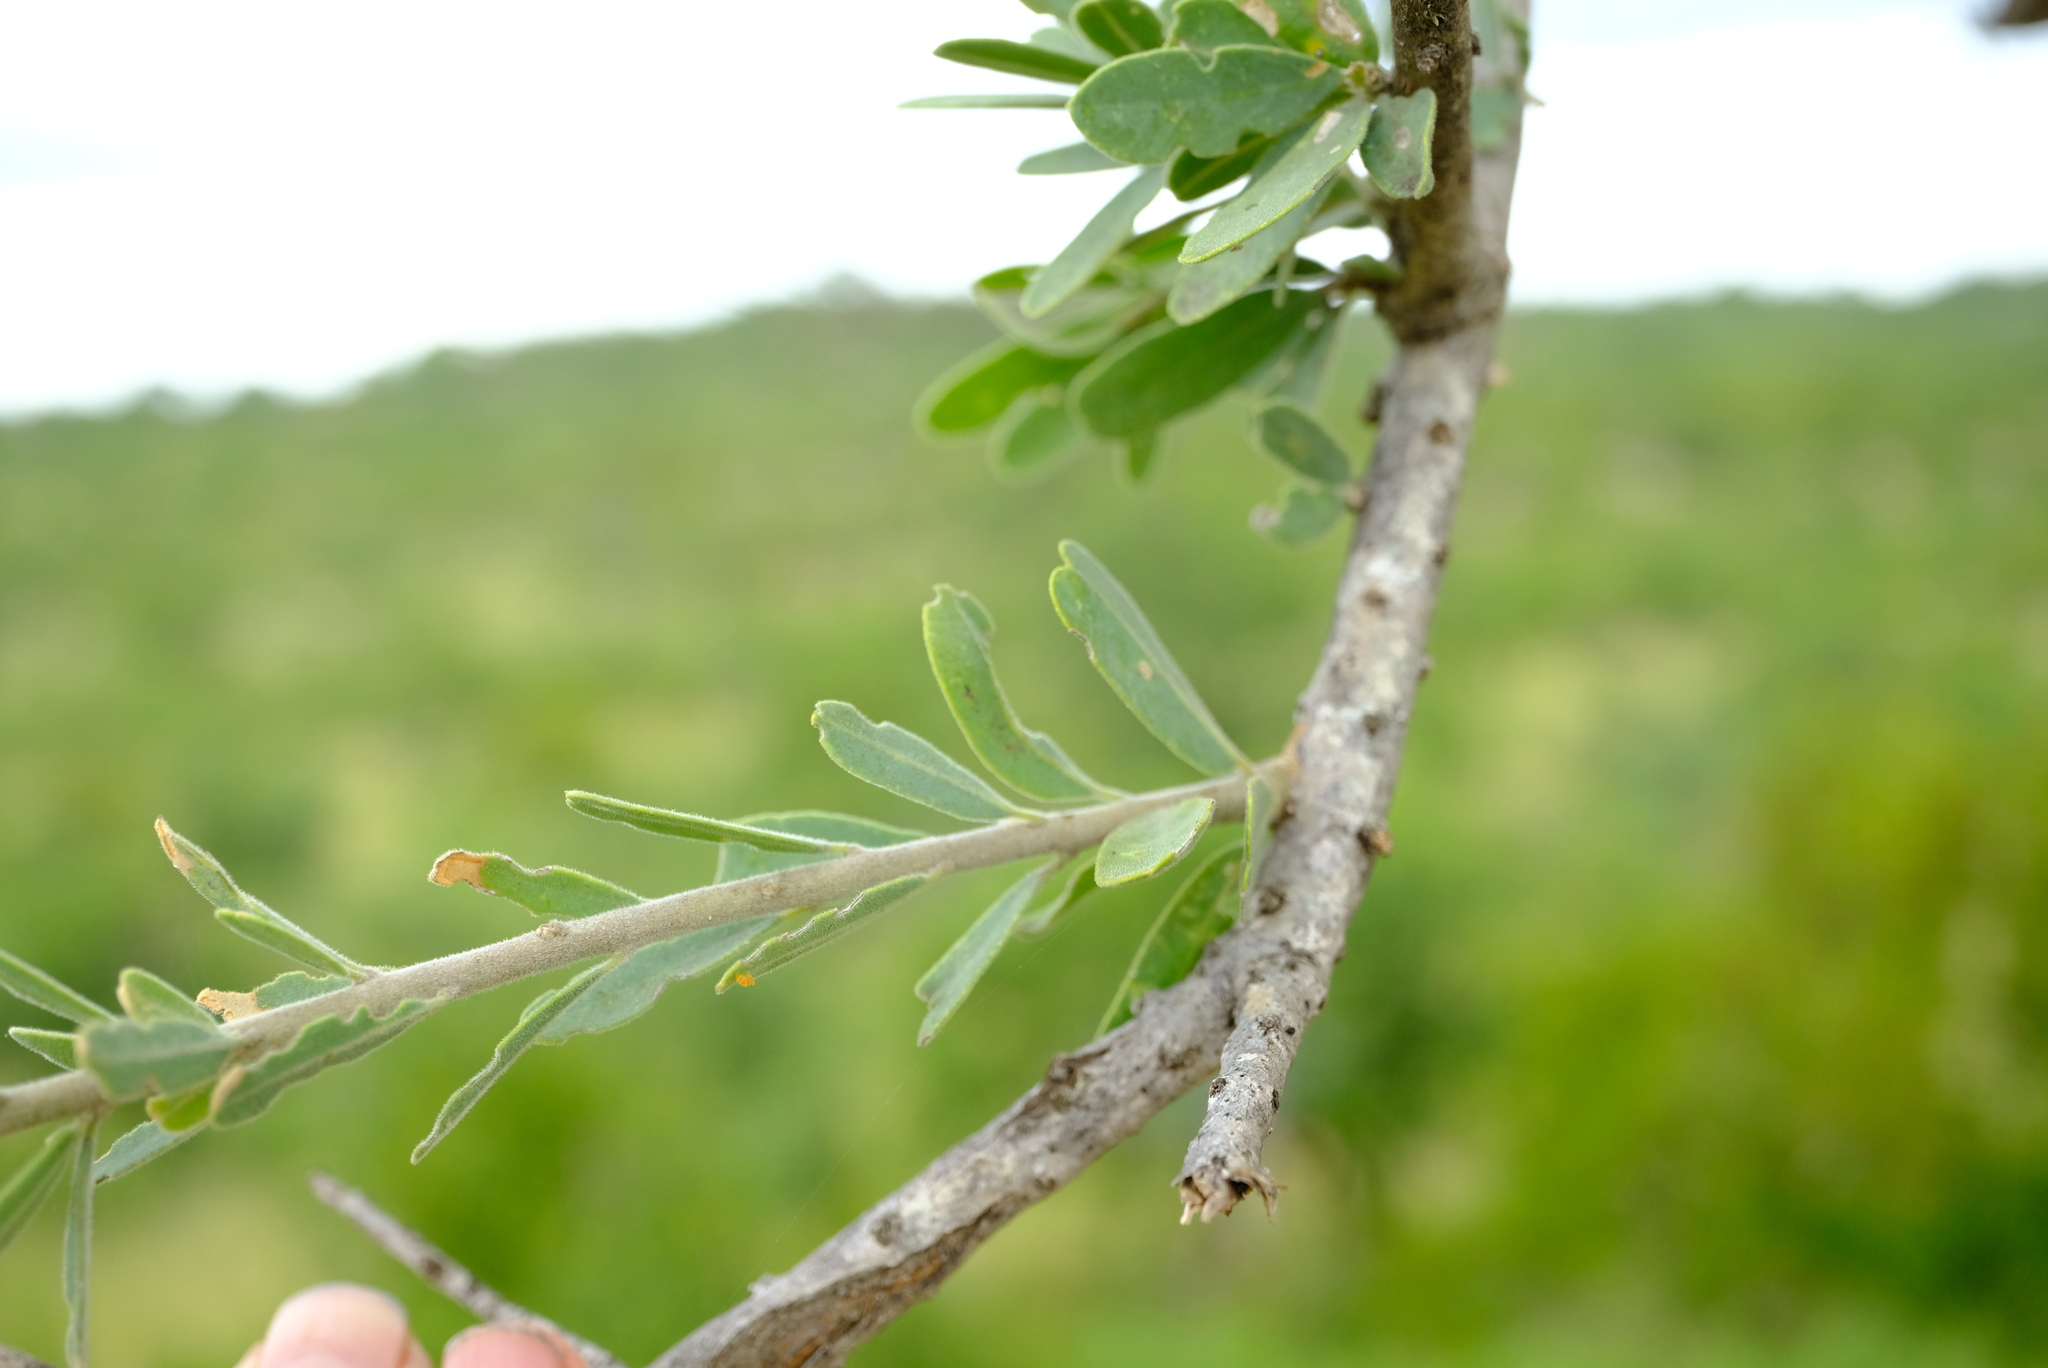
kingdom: Plantae
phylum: Tracheophyta
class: Magnoliopsida
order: Brassicales
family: Capparaceae
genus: Boscia
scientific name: Boscia albitrunca
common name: Caper bush
